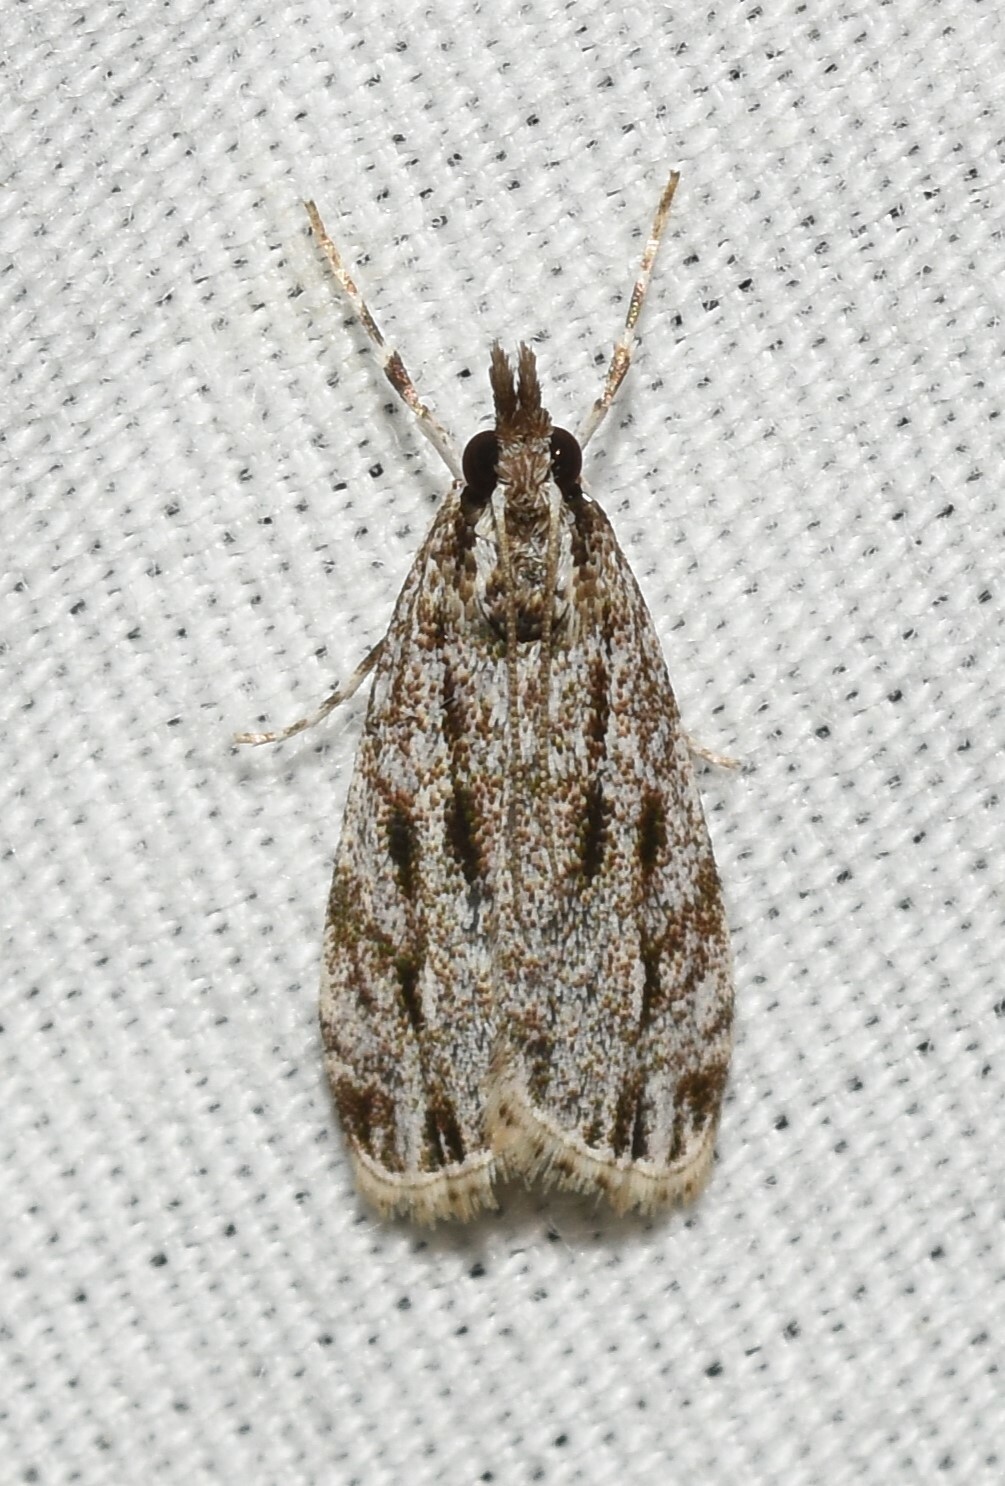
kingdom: Animalia
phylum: Arthropoda
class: Insecta
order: Lepidoptera
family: Crambidae
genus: Eudonia
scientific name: Eudonia strigalis
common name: Striped eudonia moth
